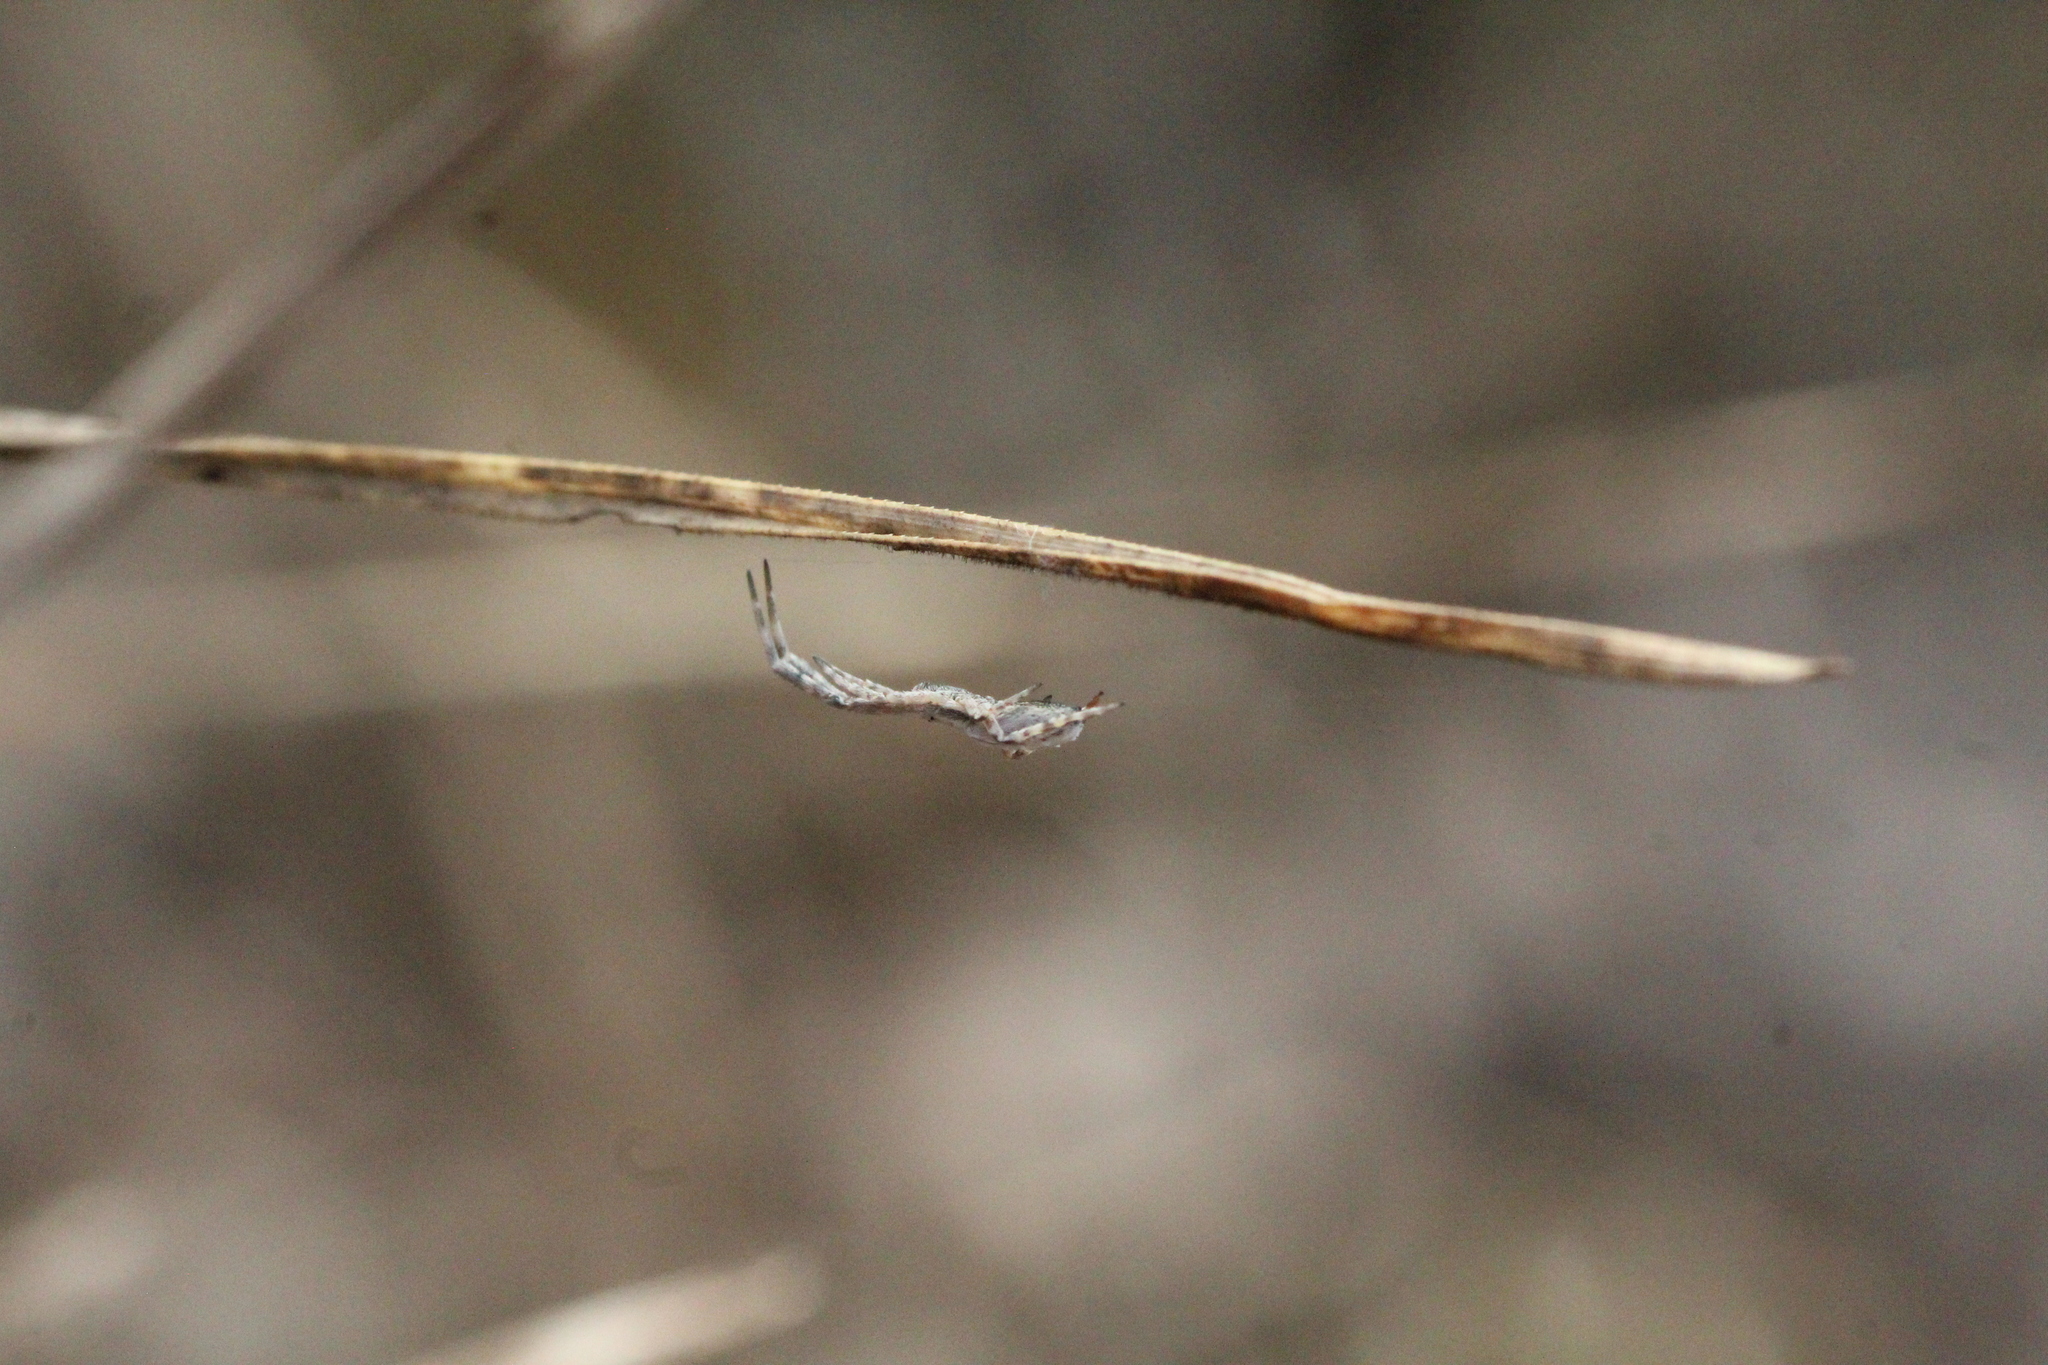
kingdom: Animalia
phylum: Arthropoda
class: Arachnida
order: Araneae
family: Uloboridae
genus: Uloborus
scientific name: Uloborus walckenaerius
